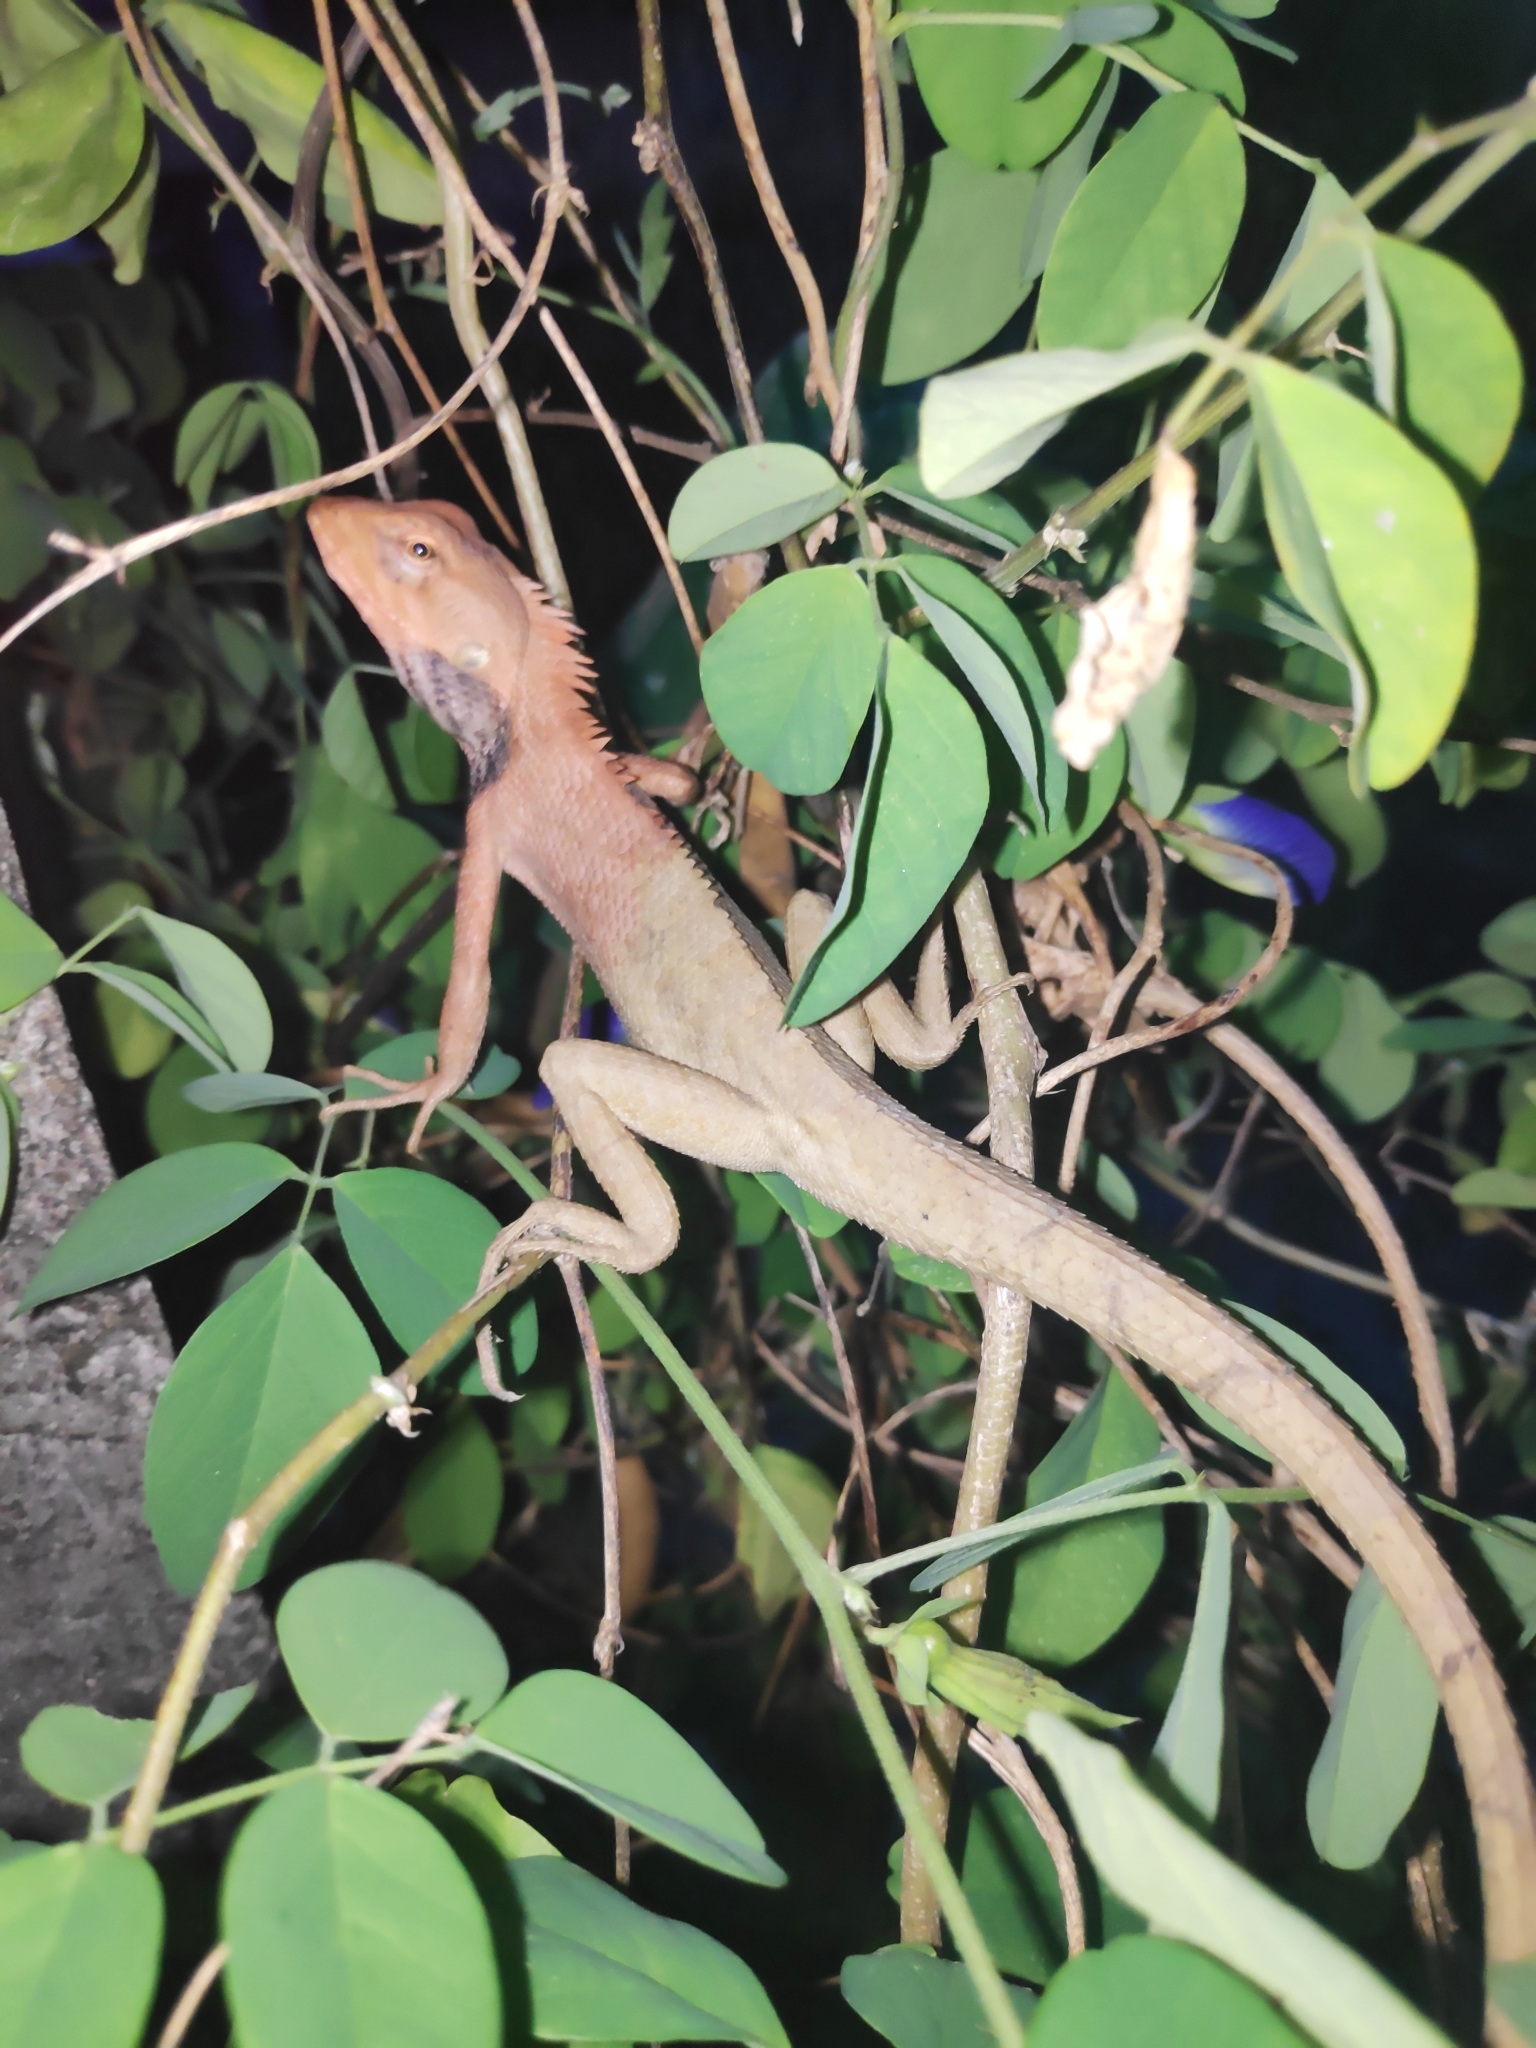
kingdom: Animalia
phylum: Chordata
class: Squamata
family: Agamidae
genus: Calotes
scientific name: Calotes versicolor
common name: Oriental garden lizard
